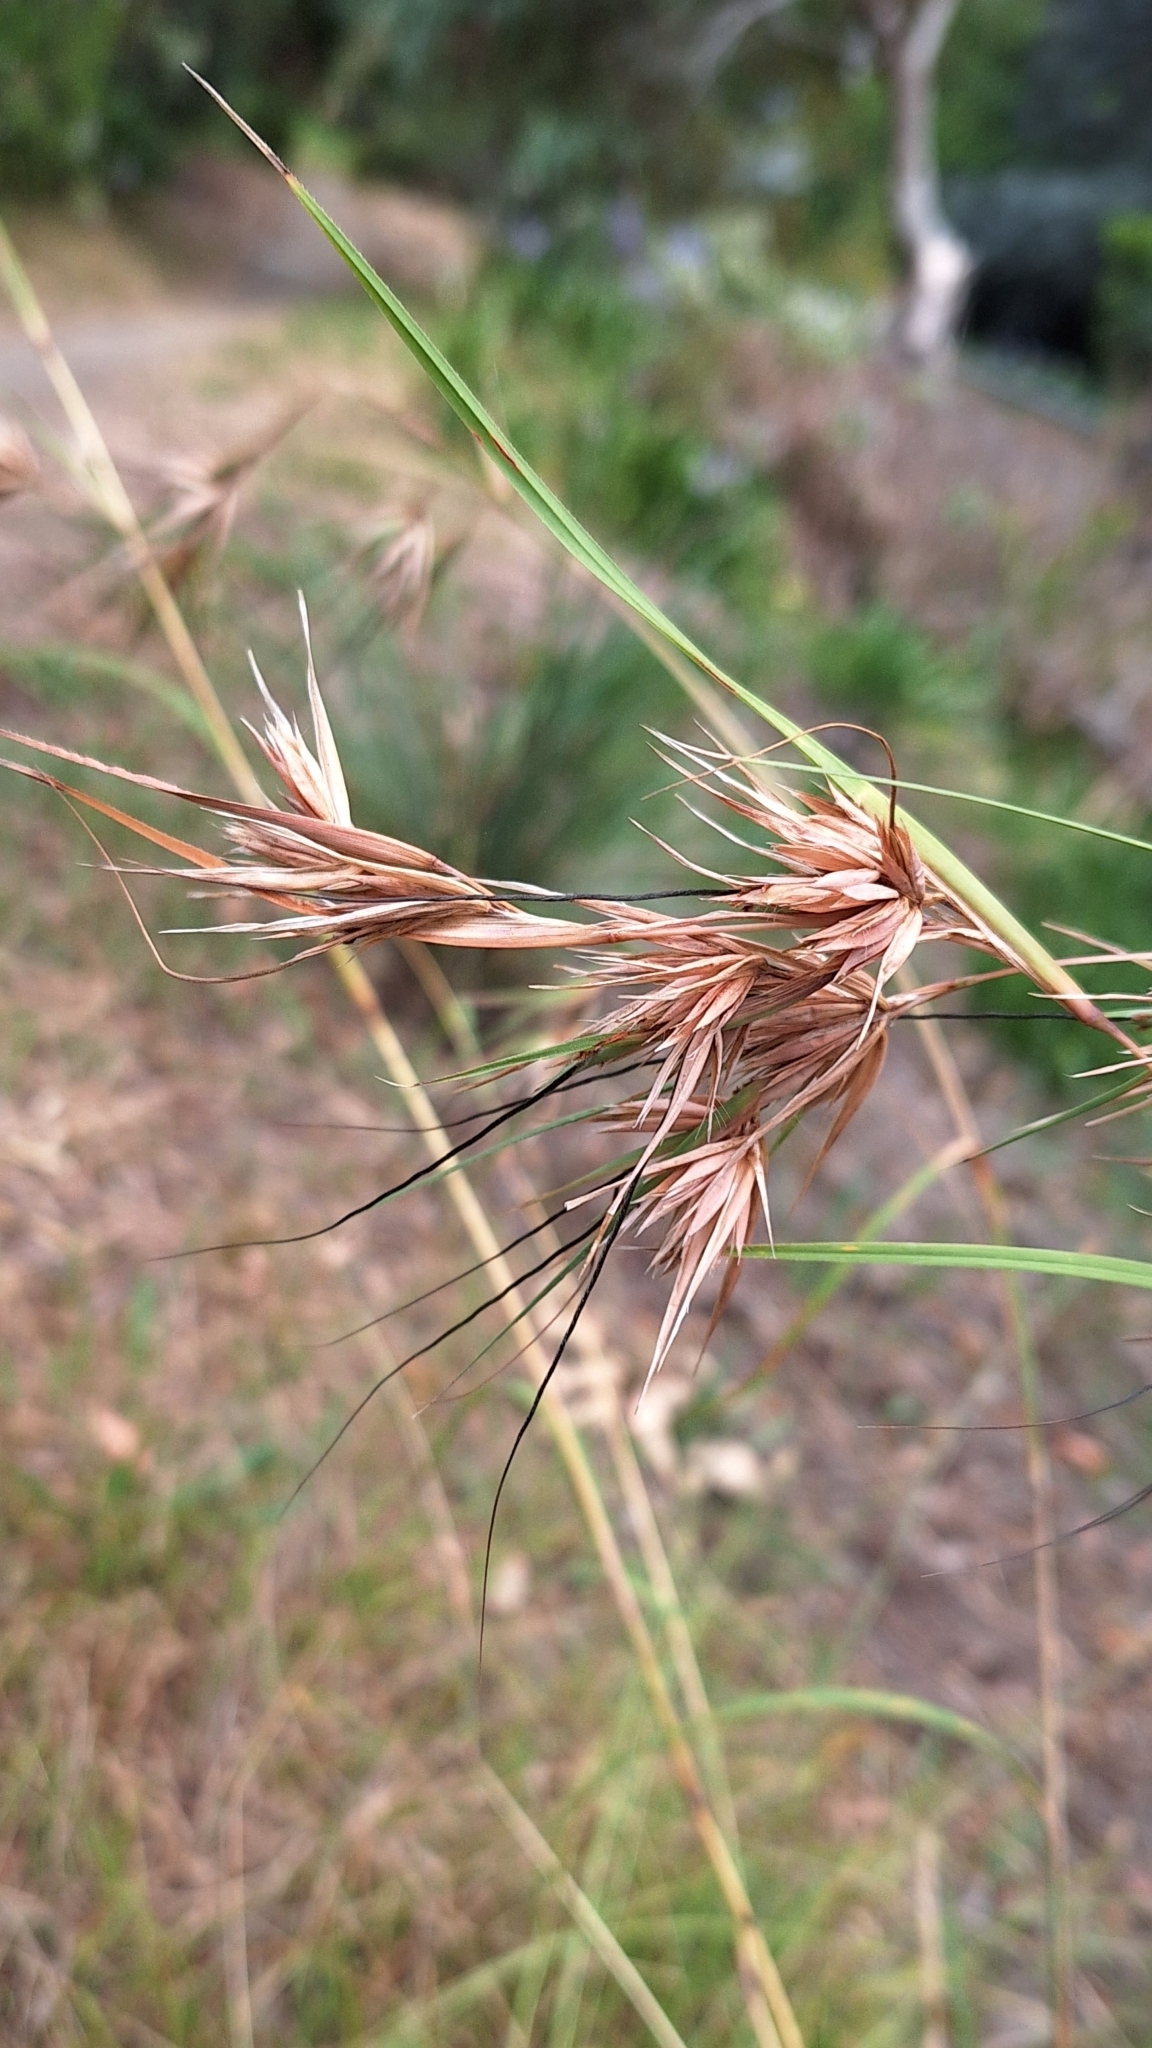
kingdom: Plantae
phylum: Tracheophyta
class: Liliopsida
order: Poales
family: Poaceae
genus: Themeda
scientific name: Themeda triandra
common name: Kangaroo grass
